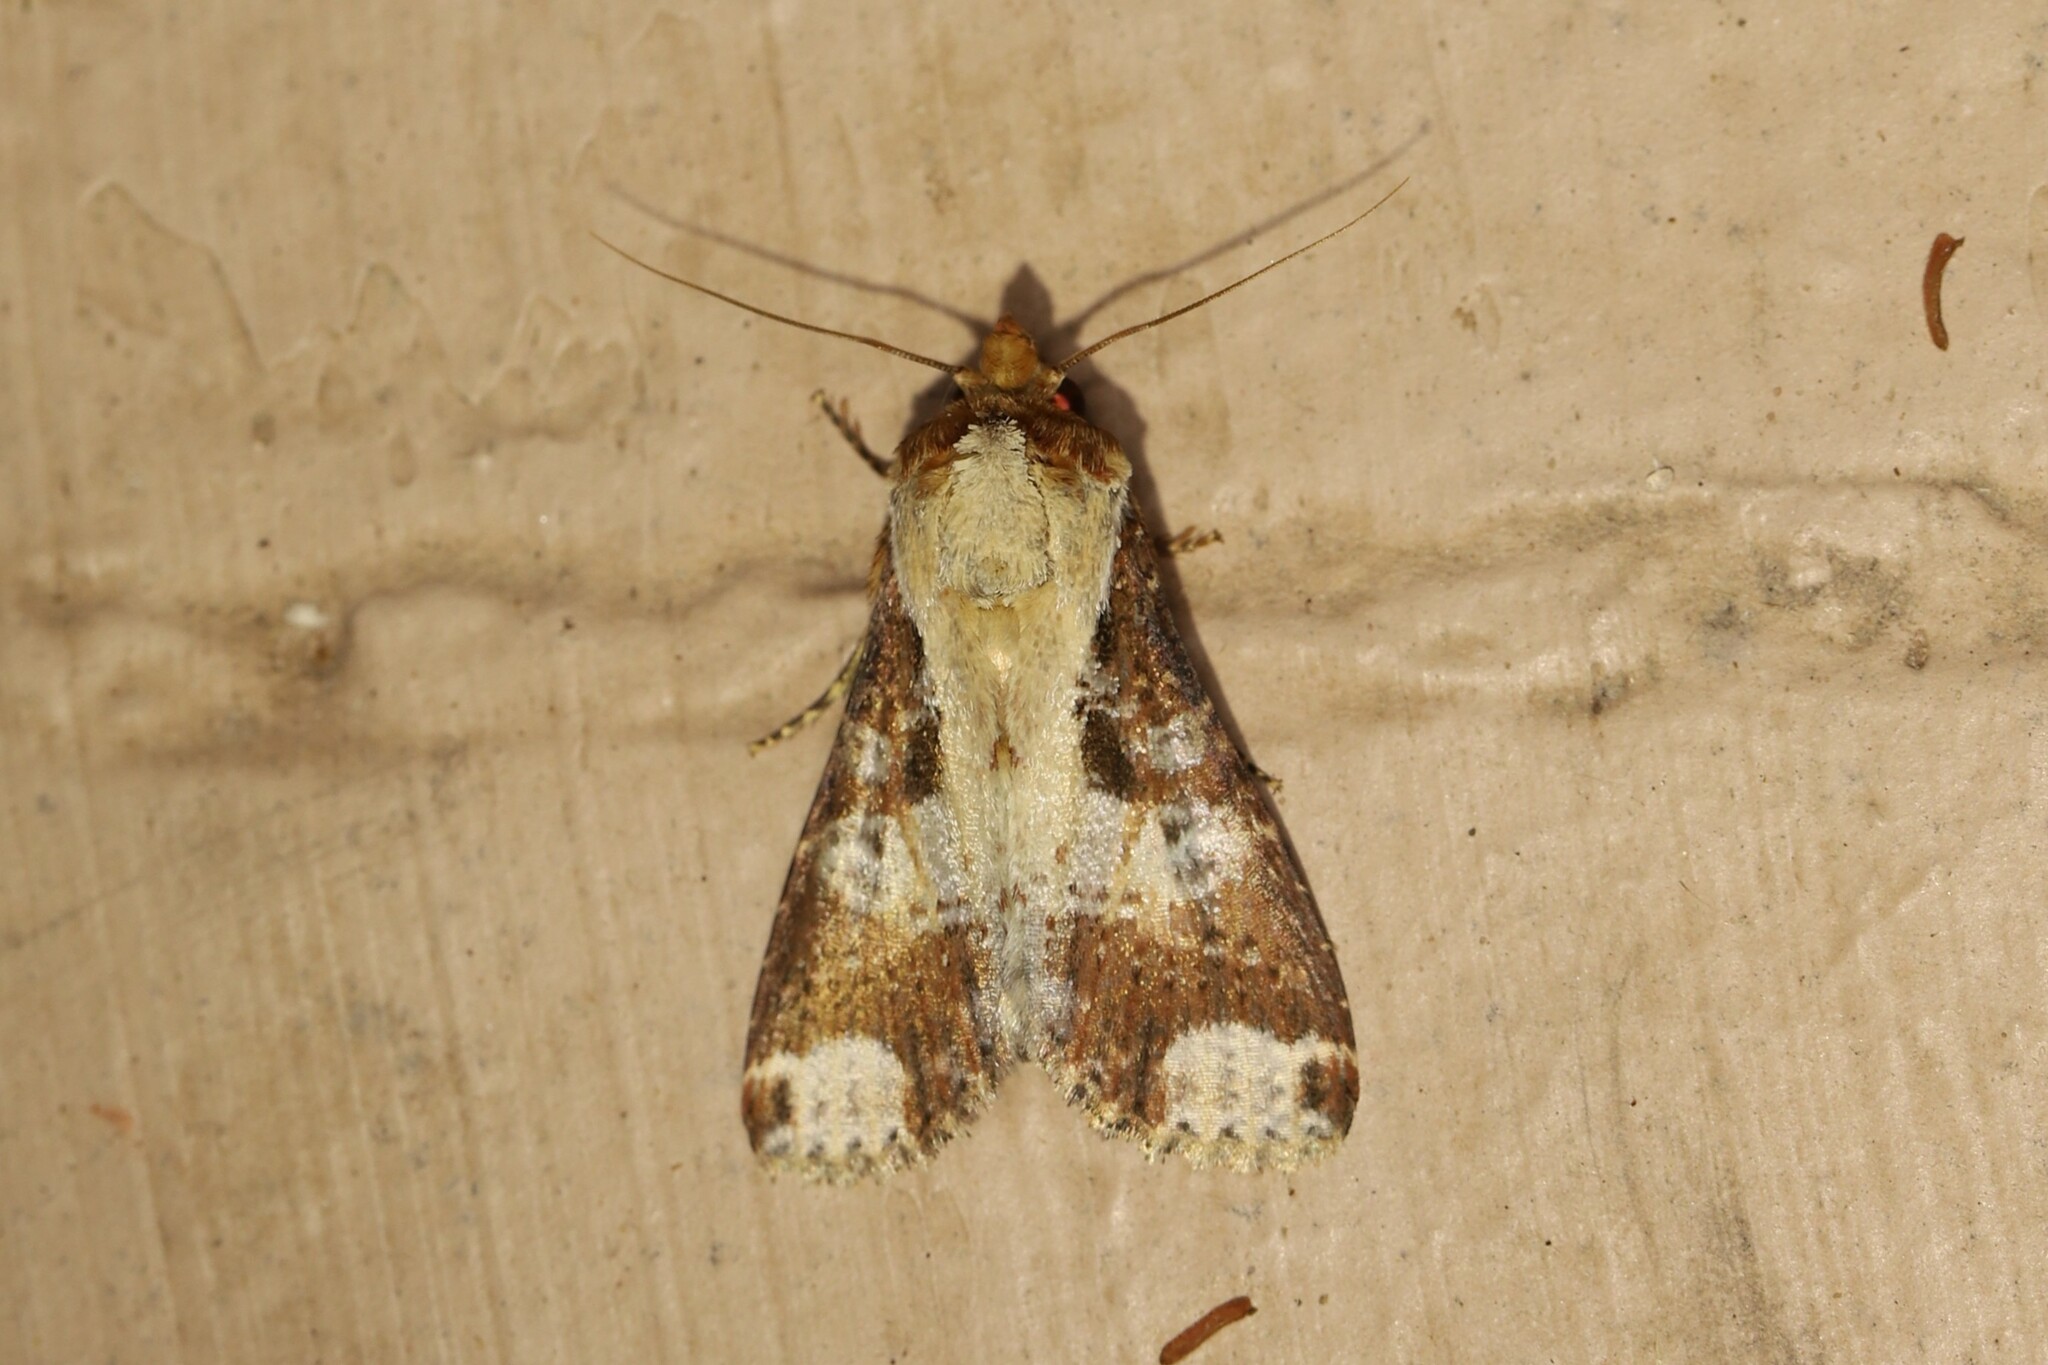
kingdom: Animalia
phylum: Arthropoda
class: Insecta
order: Lepidoptera
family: Noctuidae
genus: Condica
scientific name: Condica imitata
